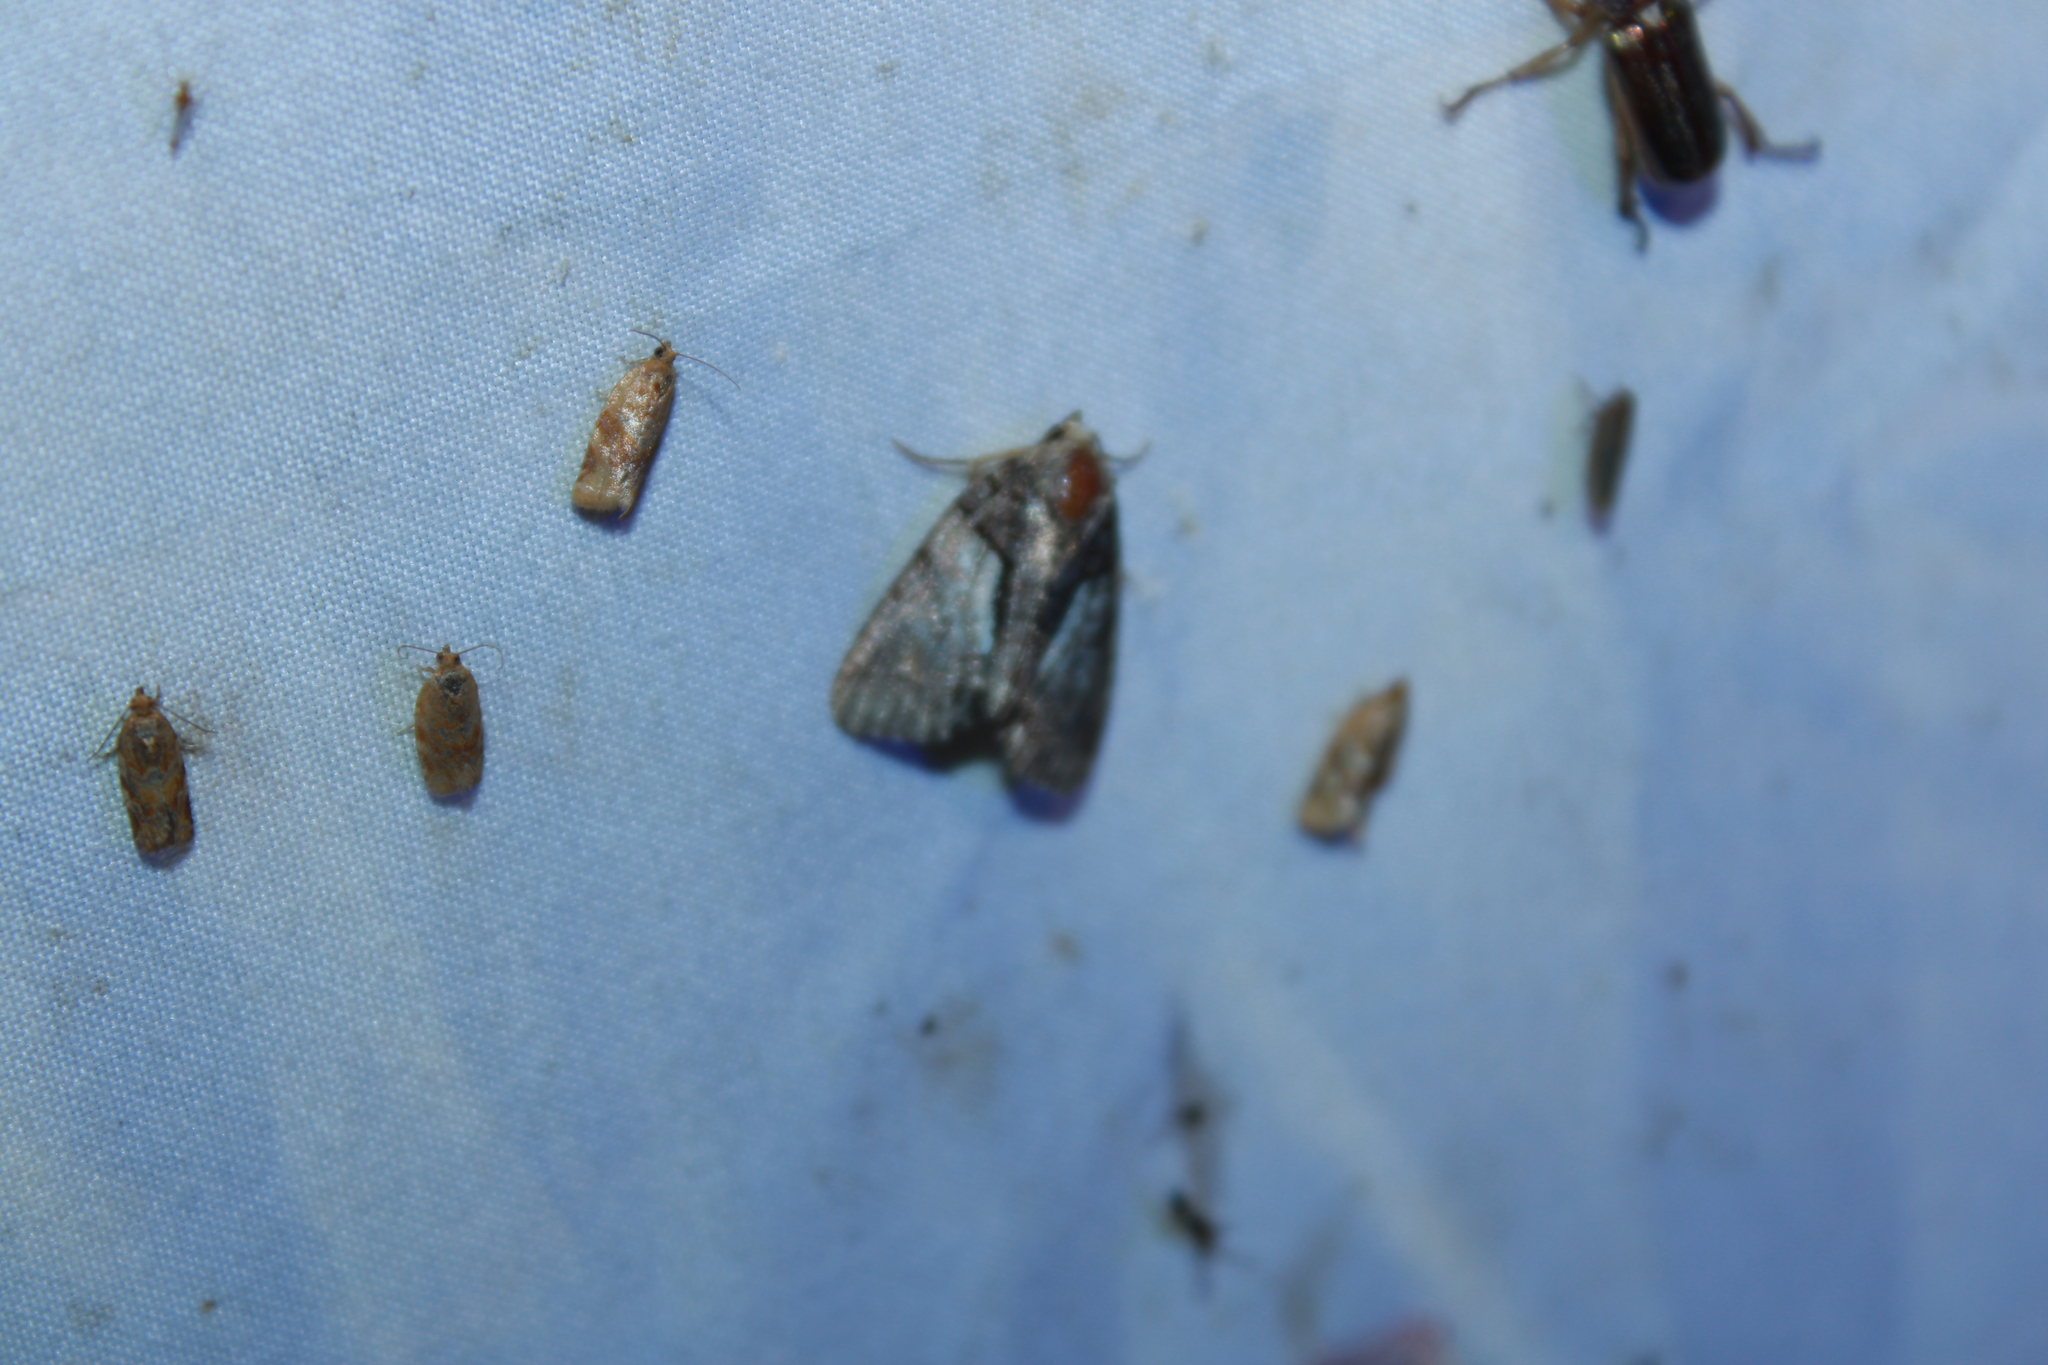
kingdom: Animalia
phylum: Arthropoda
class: Insecta
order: Lepidoptera
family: Noctuidae
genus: Chytonix
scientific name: Chytonix palliatricula
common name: Cloaked marvel
